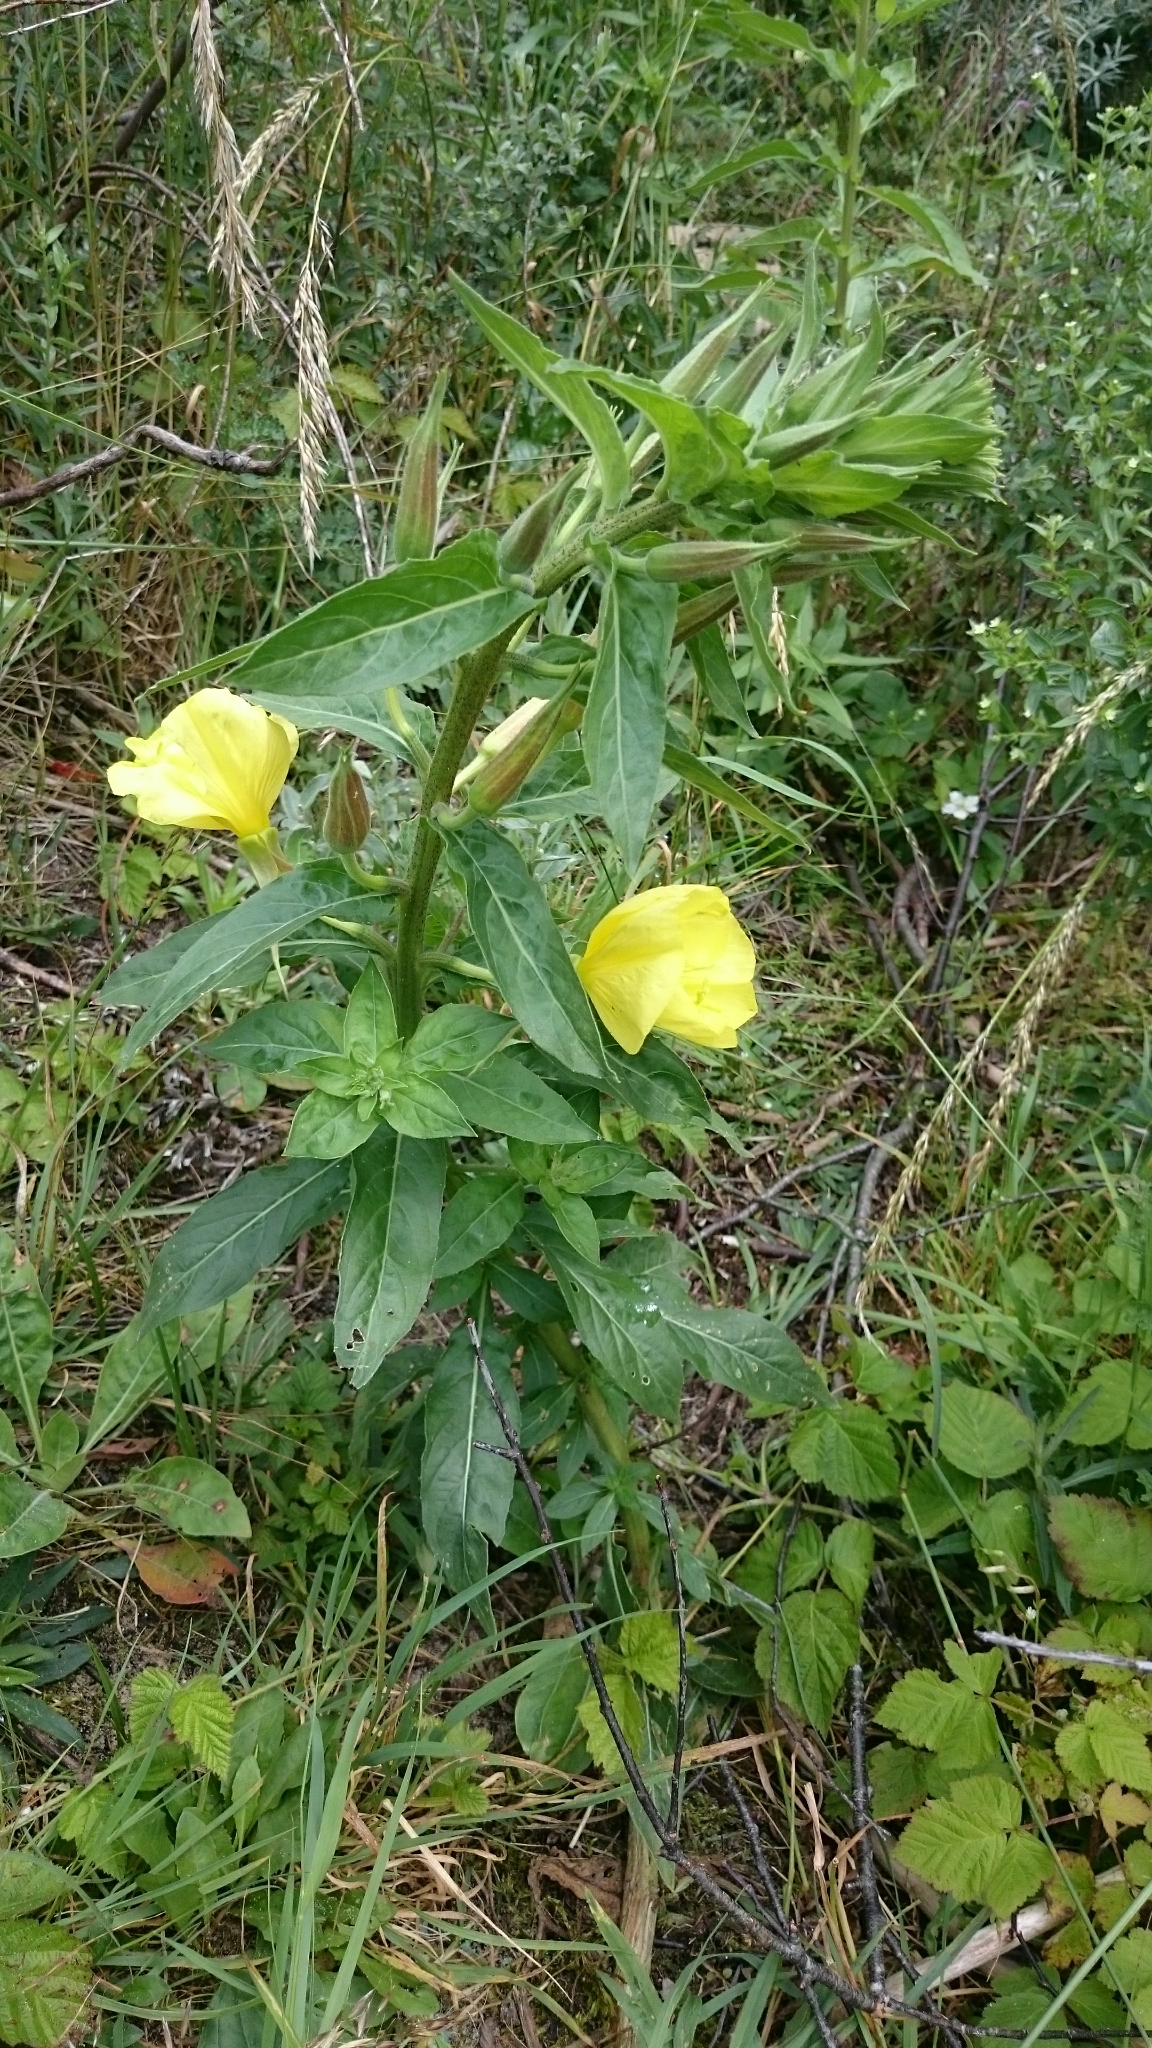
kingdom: Plantae
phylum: Tracheophyta
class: Magnoliopsida
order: Myrtales
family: Onagraceae
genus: Oenothera
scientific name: Oenothera glazioviana
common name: Large-flowered evening-primrose
